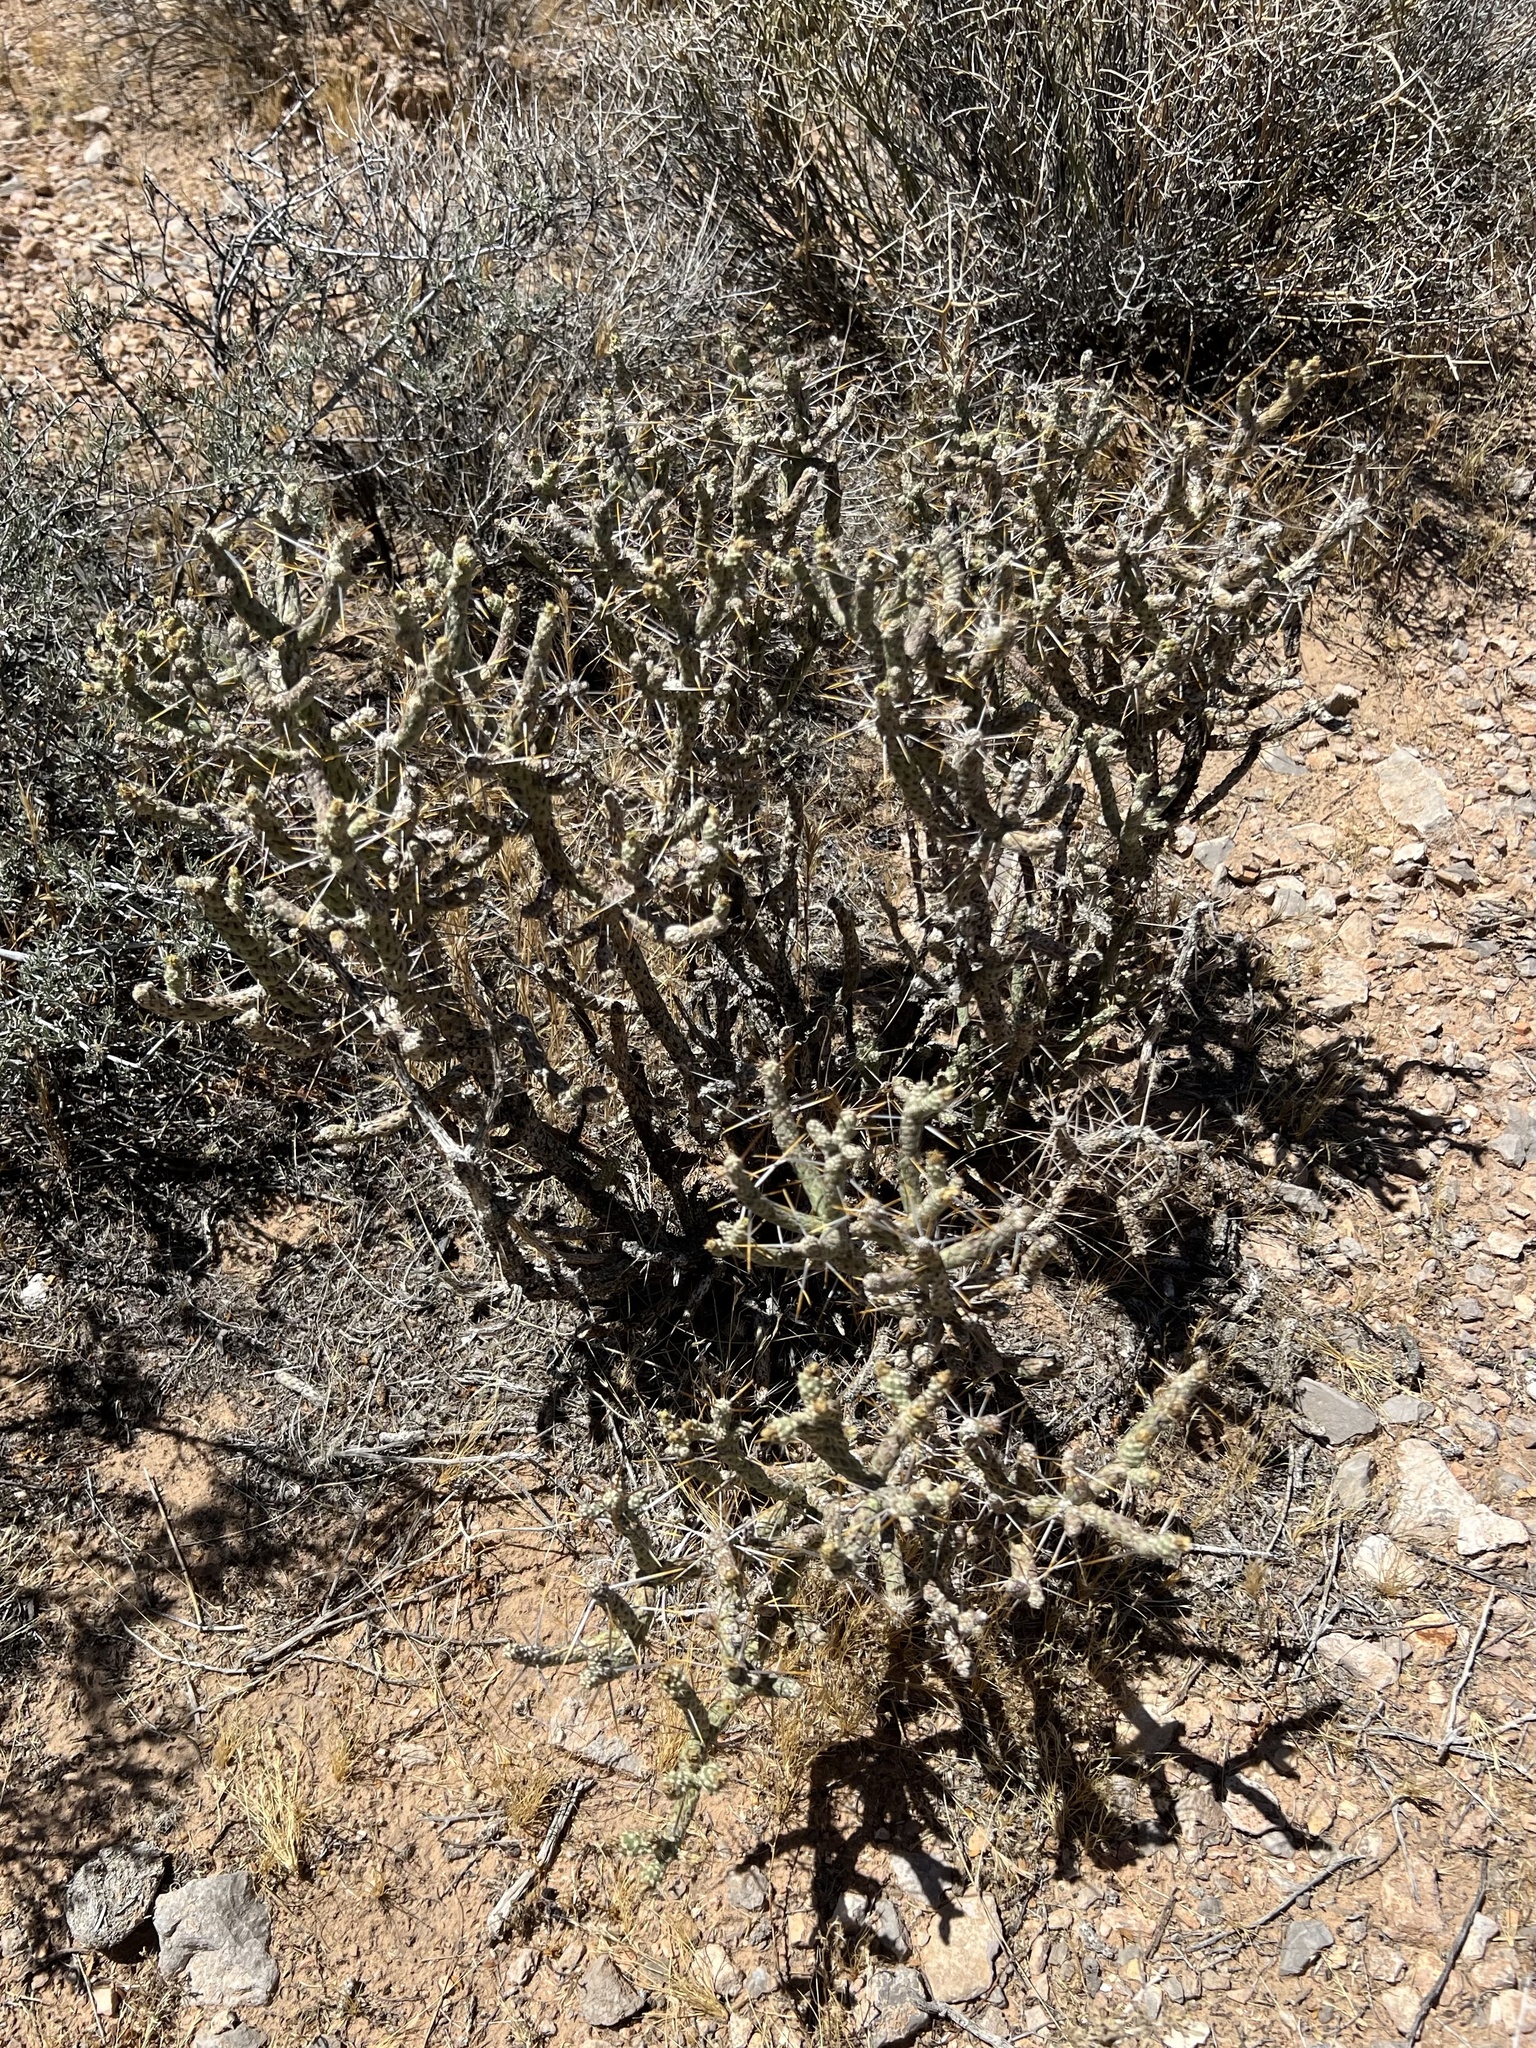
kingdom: Plantae
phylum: Tracheophyta
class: Magnoliopsida
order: Caryophyllales
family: Cactaceae
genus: Cylindropuntia
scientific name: Cylindropuntia ramosissima
